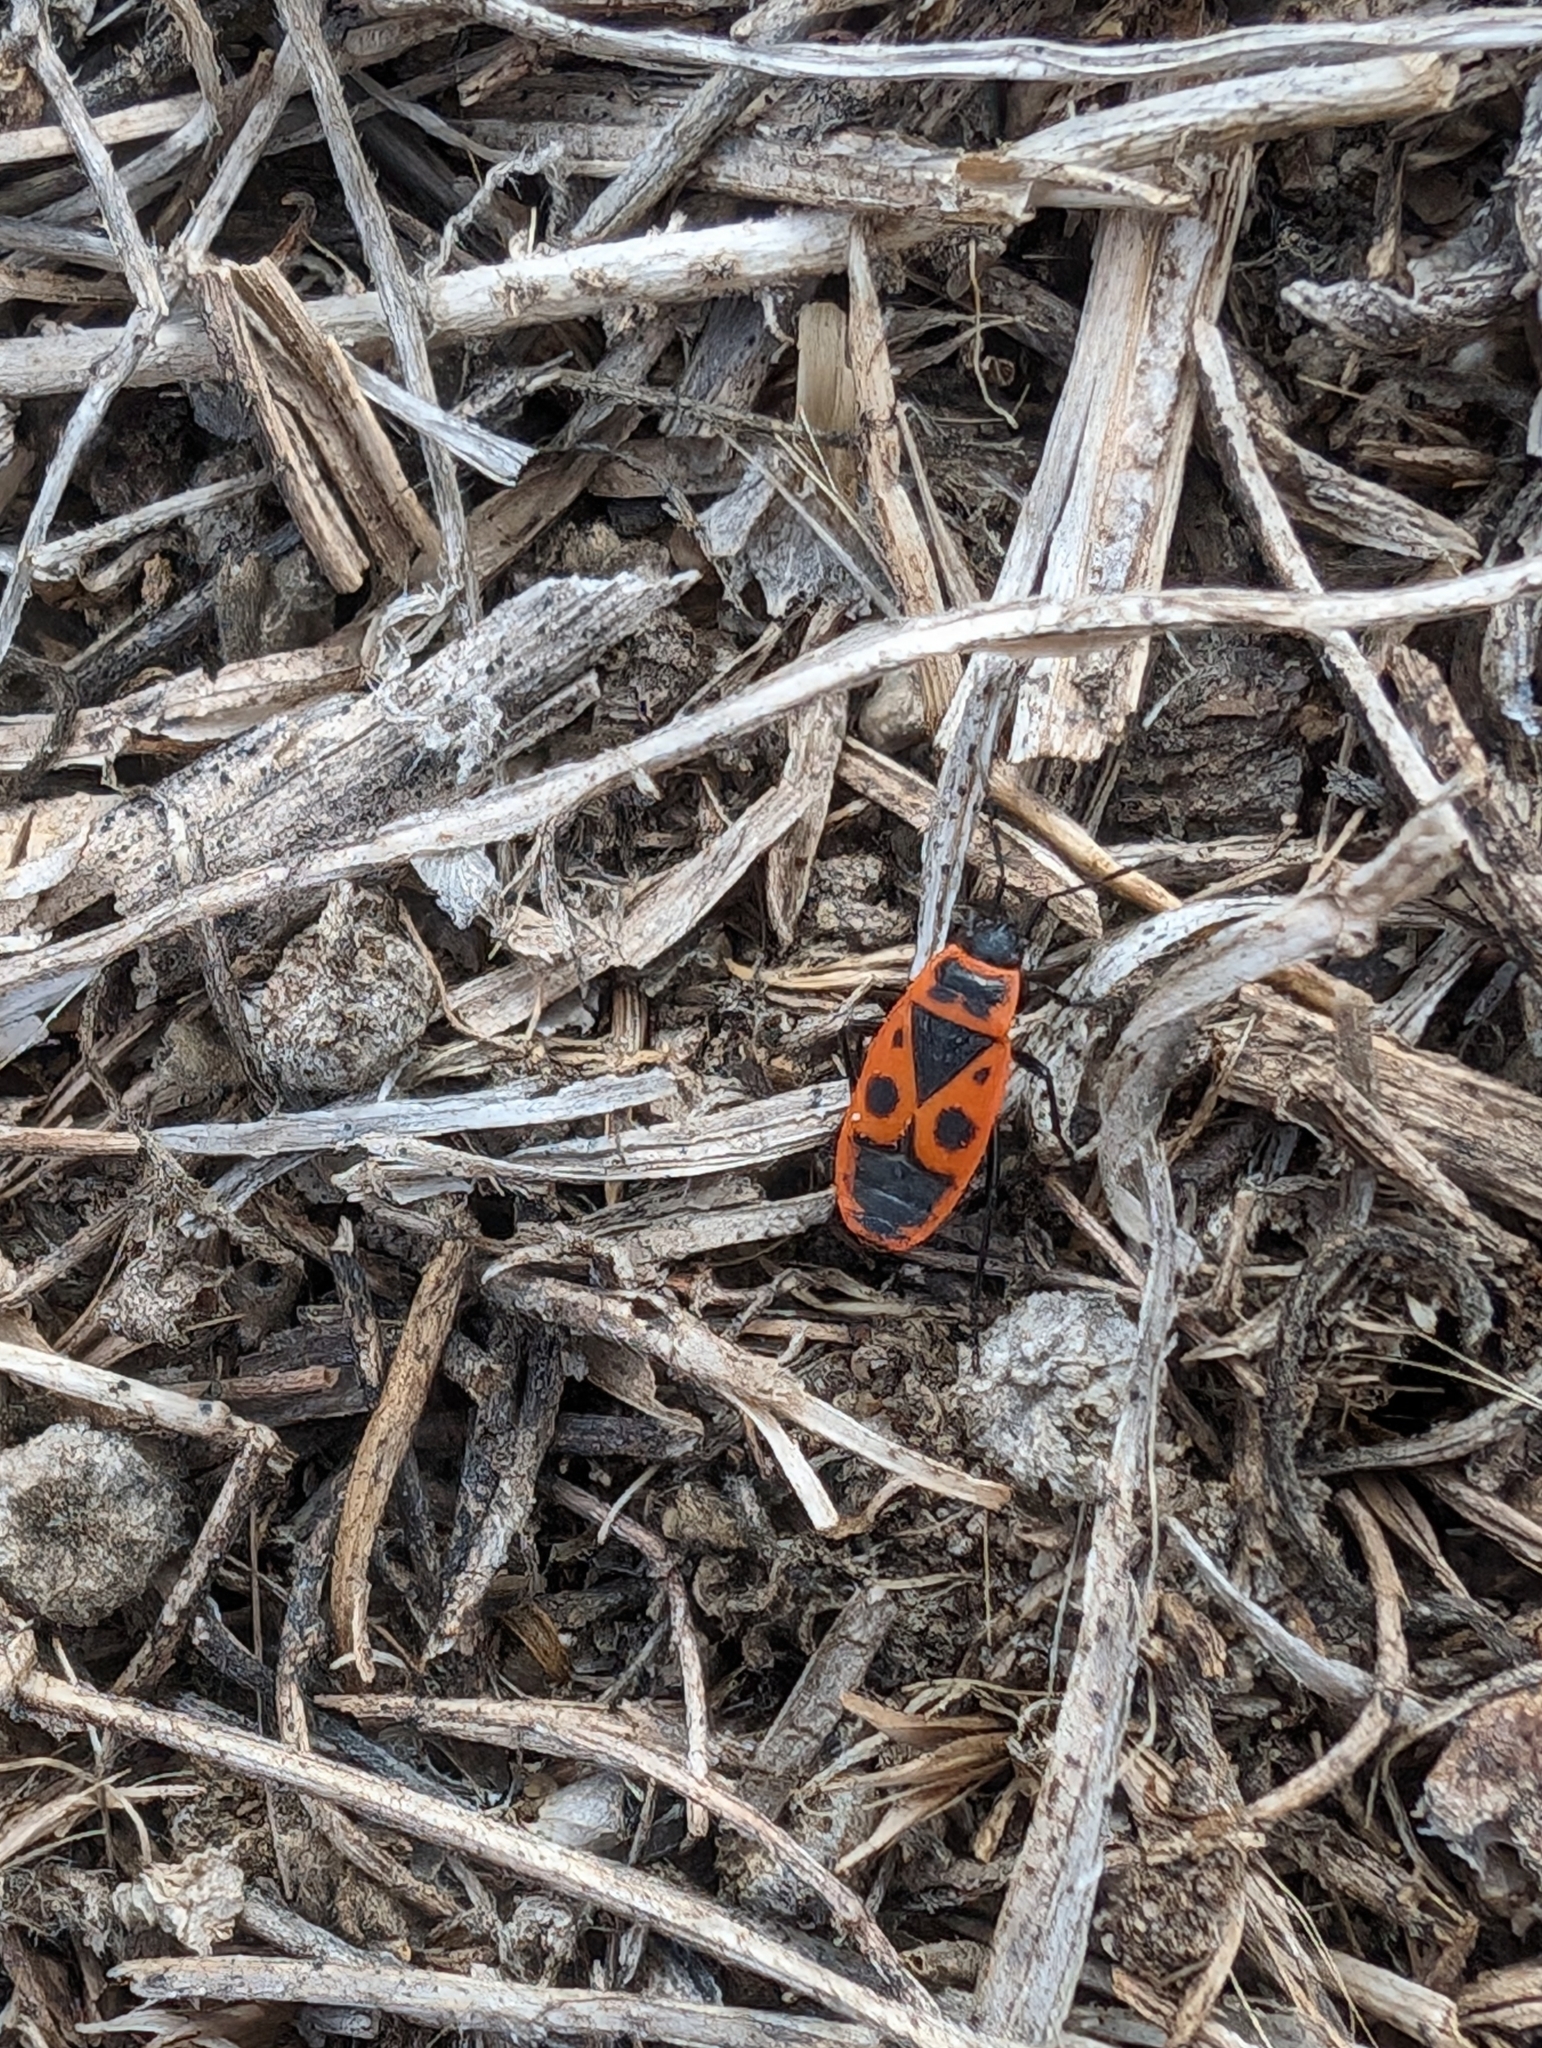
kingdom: Animalia
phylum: Arthropoda
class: Insecta
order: Hemiptera
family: Pyrrhocoridae
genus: Pyrrhocoris
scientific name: Pyrrhocoris apterus
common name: Firebug
